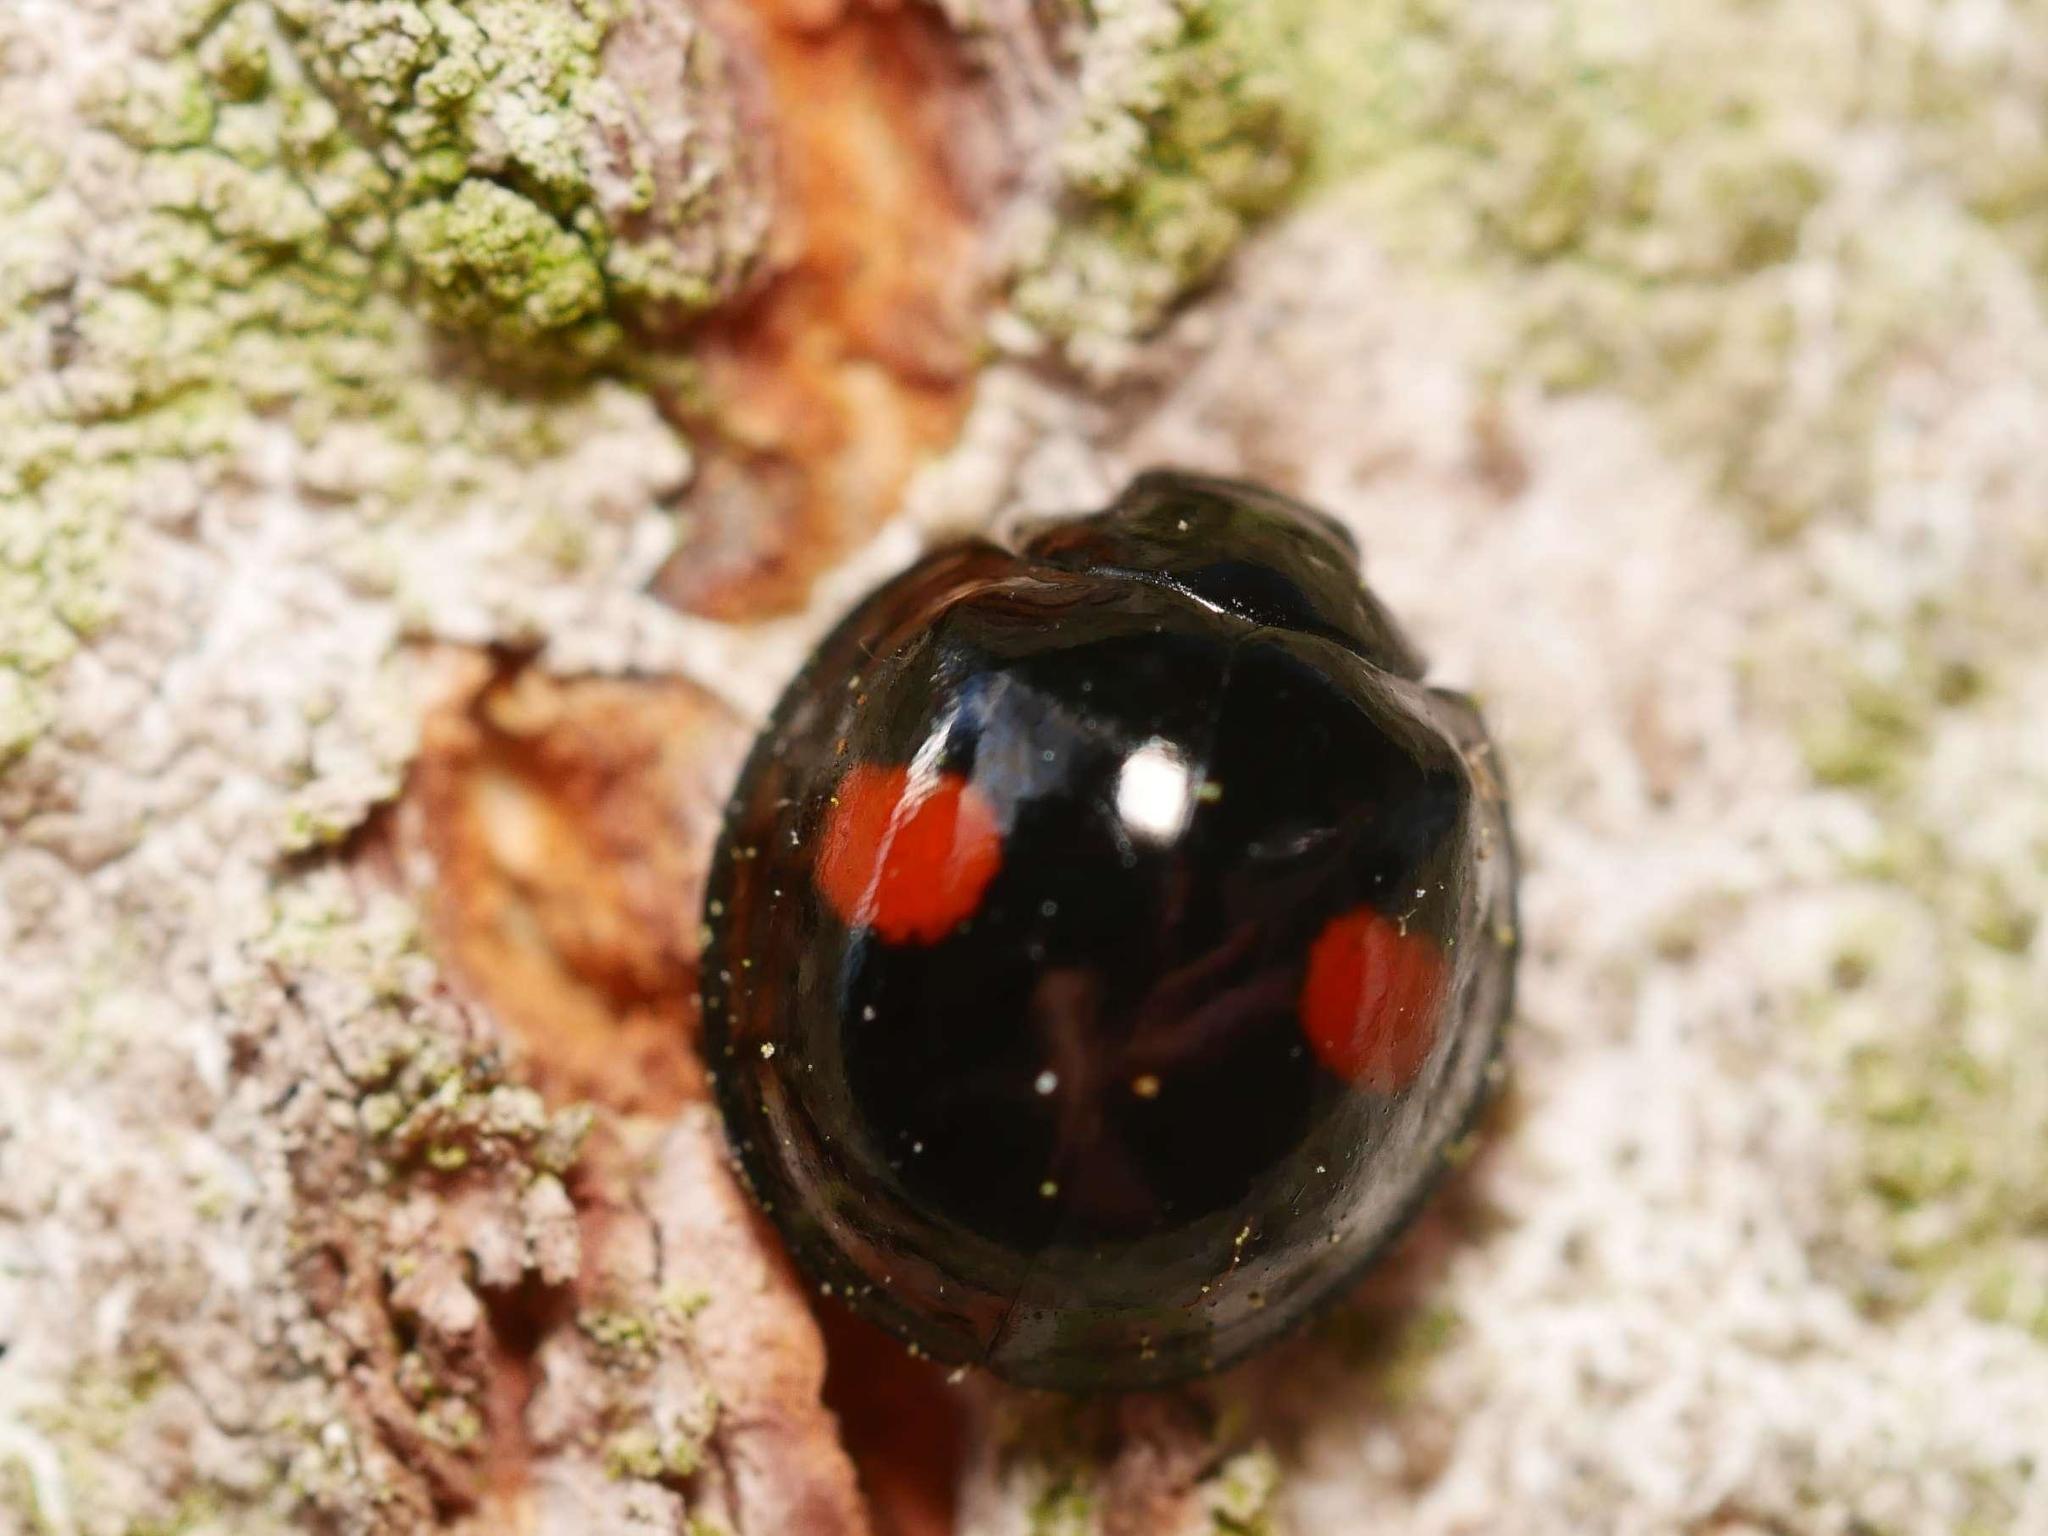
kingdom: Animalia
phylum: Arthropoda
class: Insecta
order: Coleoptera
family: Coccinellidae
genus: Chilocorus
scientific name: Chilocorus renipustulatus
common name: Kidney-spot ladybird
